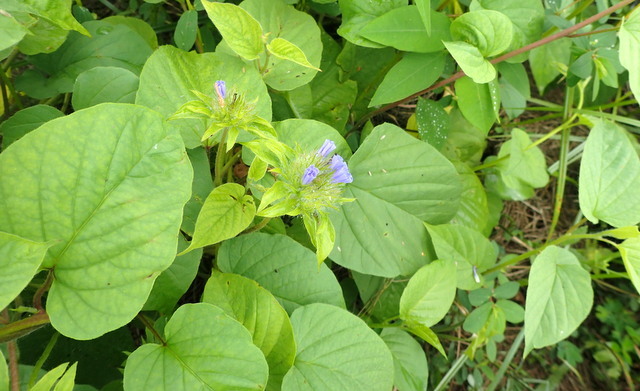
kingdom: Plantae
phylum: Tracheophyta
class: Magnoliopsida
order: Solanales
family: Convolvulaceae
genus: Jacquemontia
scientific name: Jacquemontia tamnifolia
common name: Hairy clustervine
